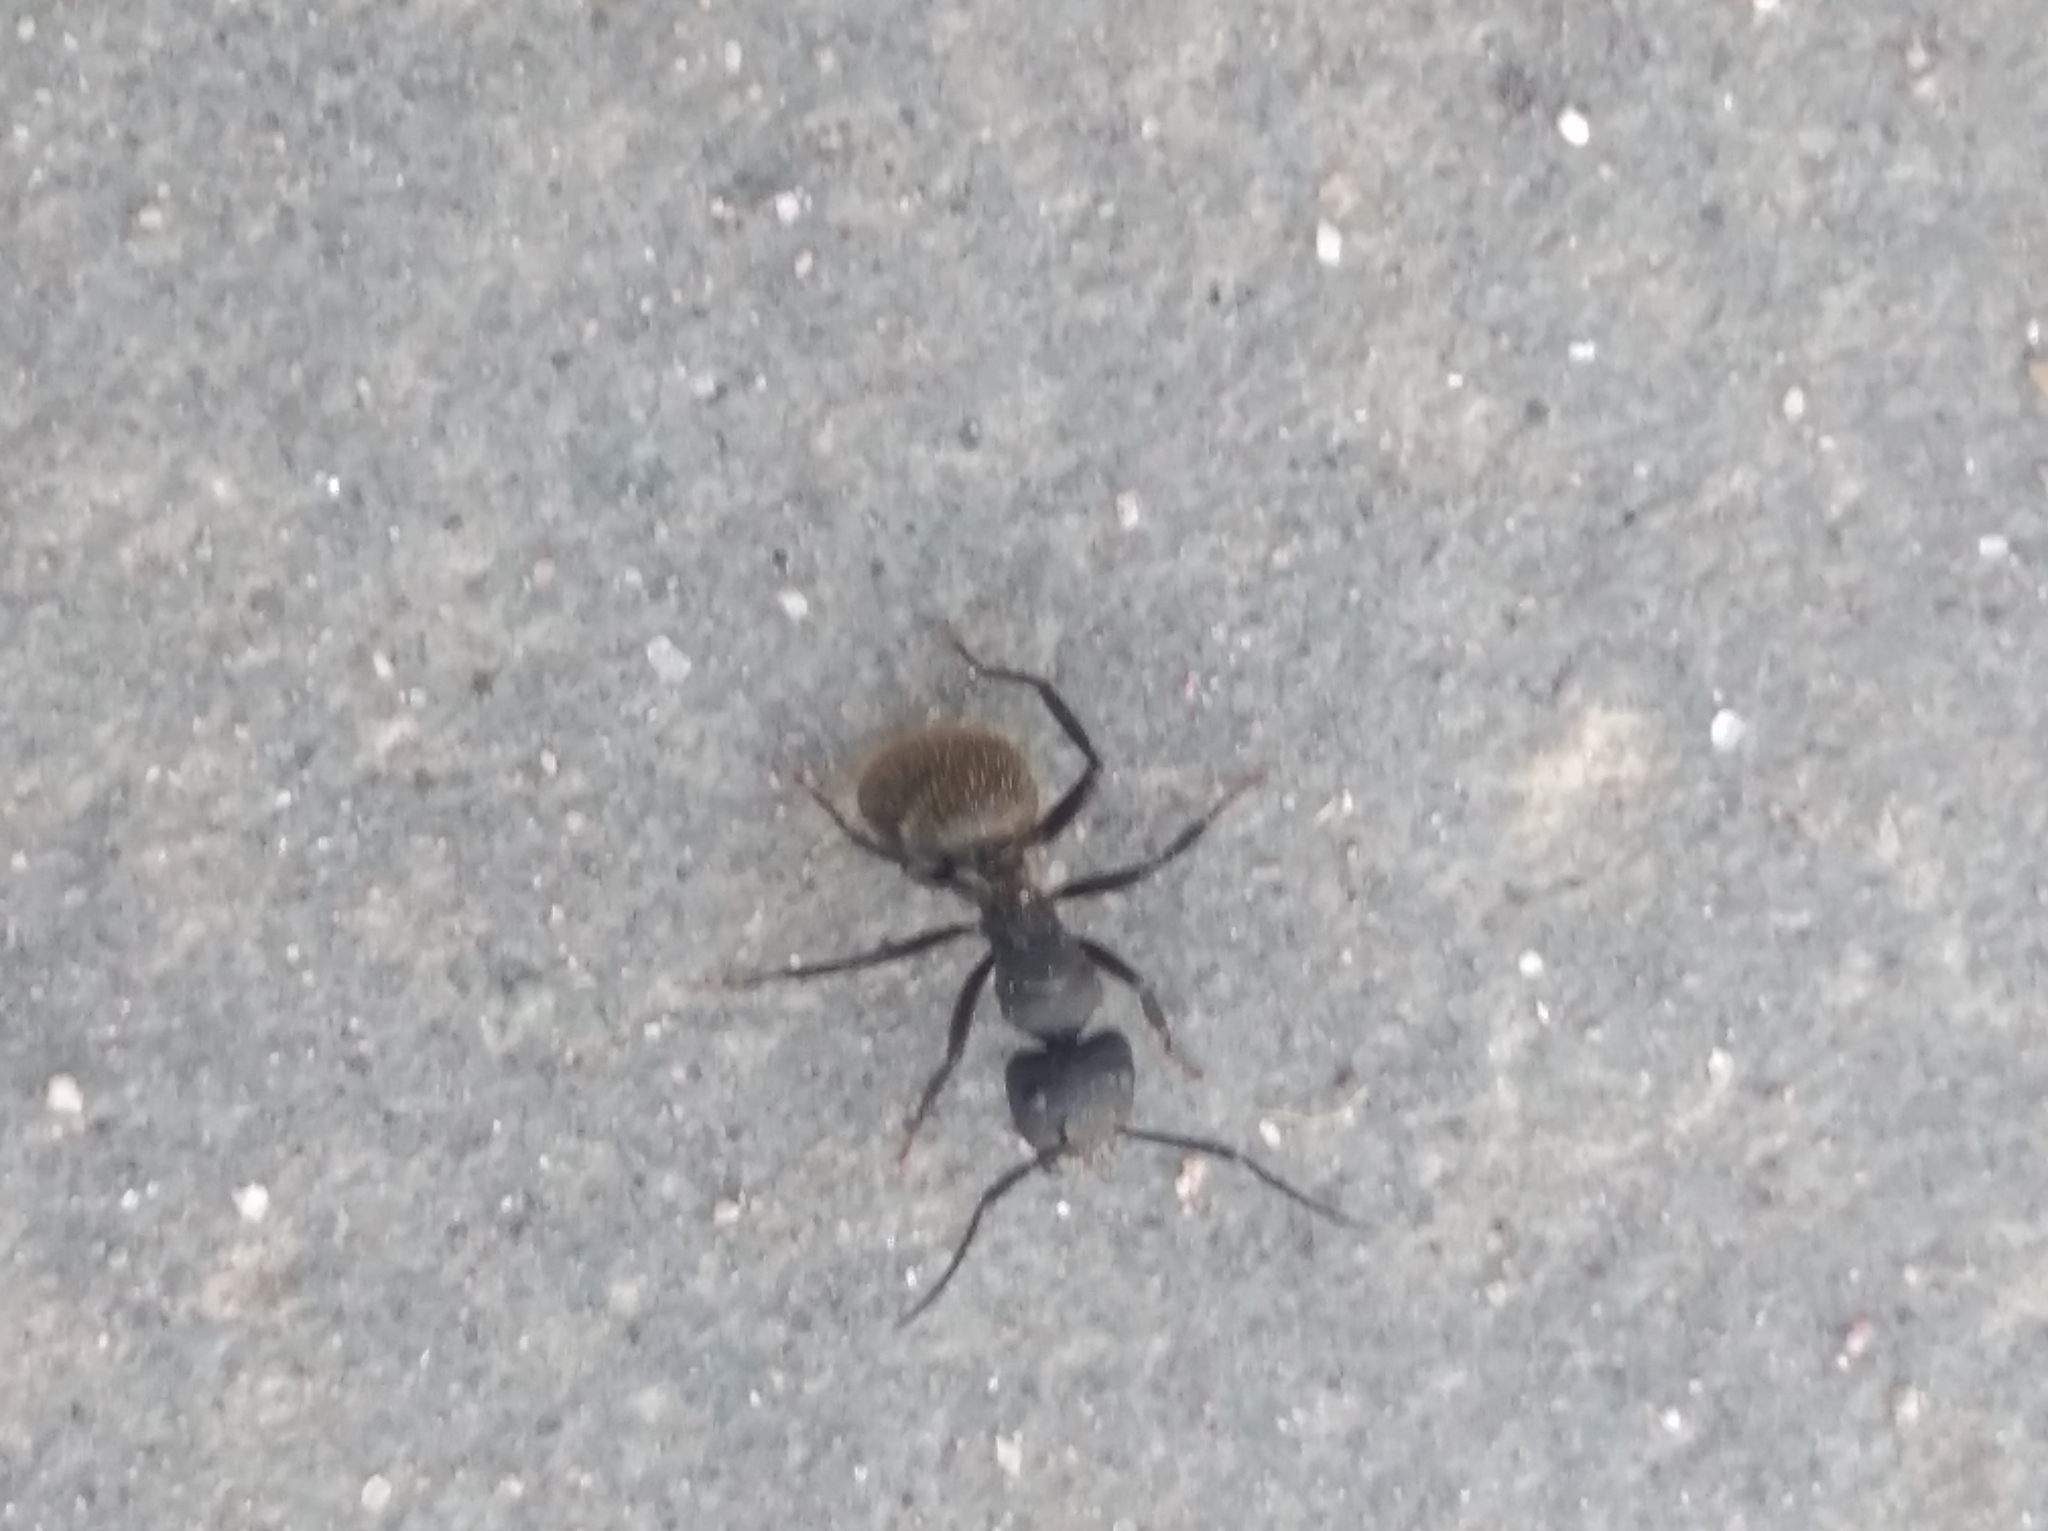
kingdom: Animalia
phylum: Arthropoda
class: Insecta
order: Hymenoptera
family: Formicidae
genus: Camponotus
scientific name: Camponotus mus
